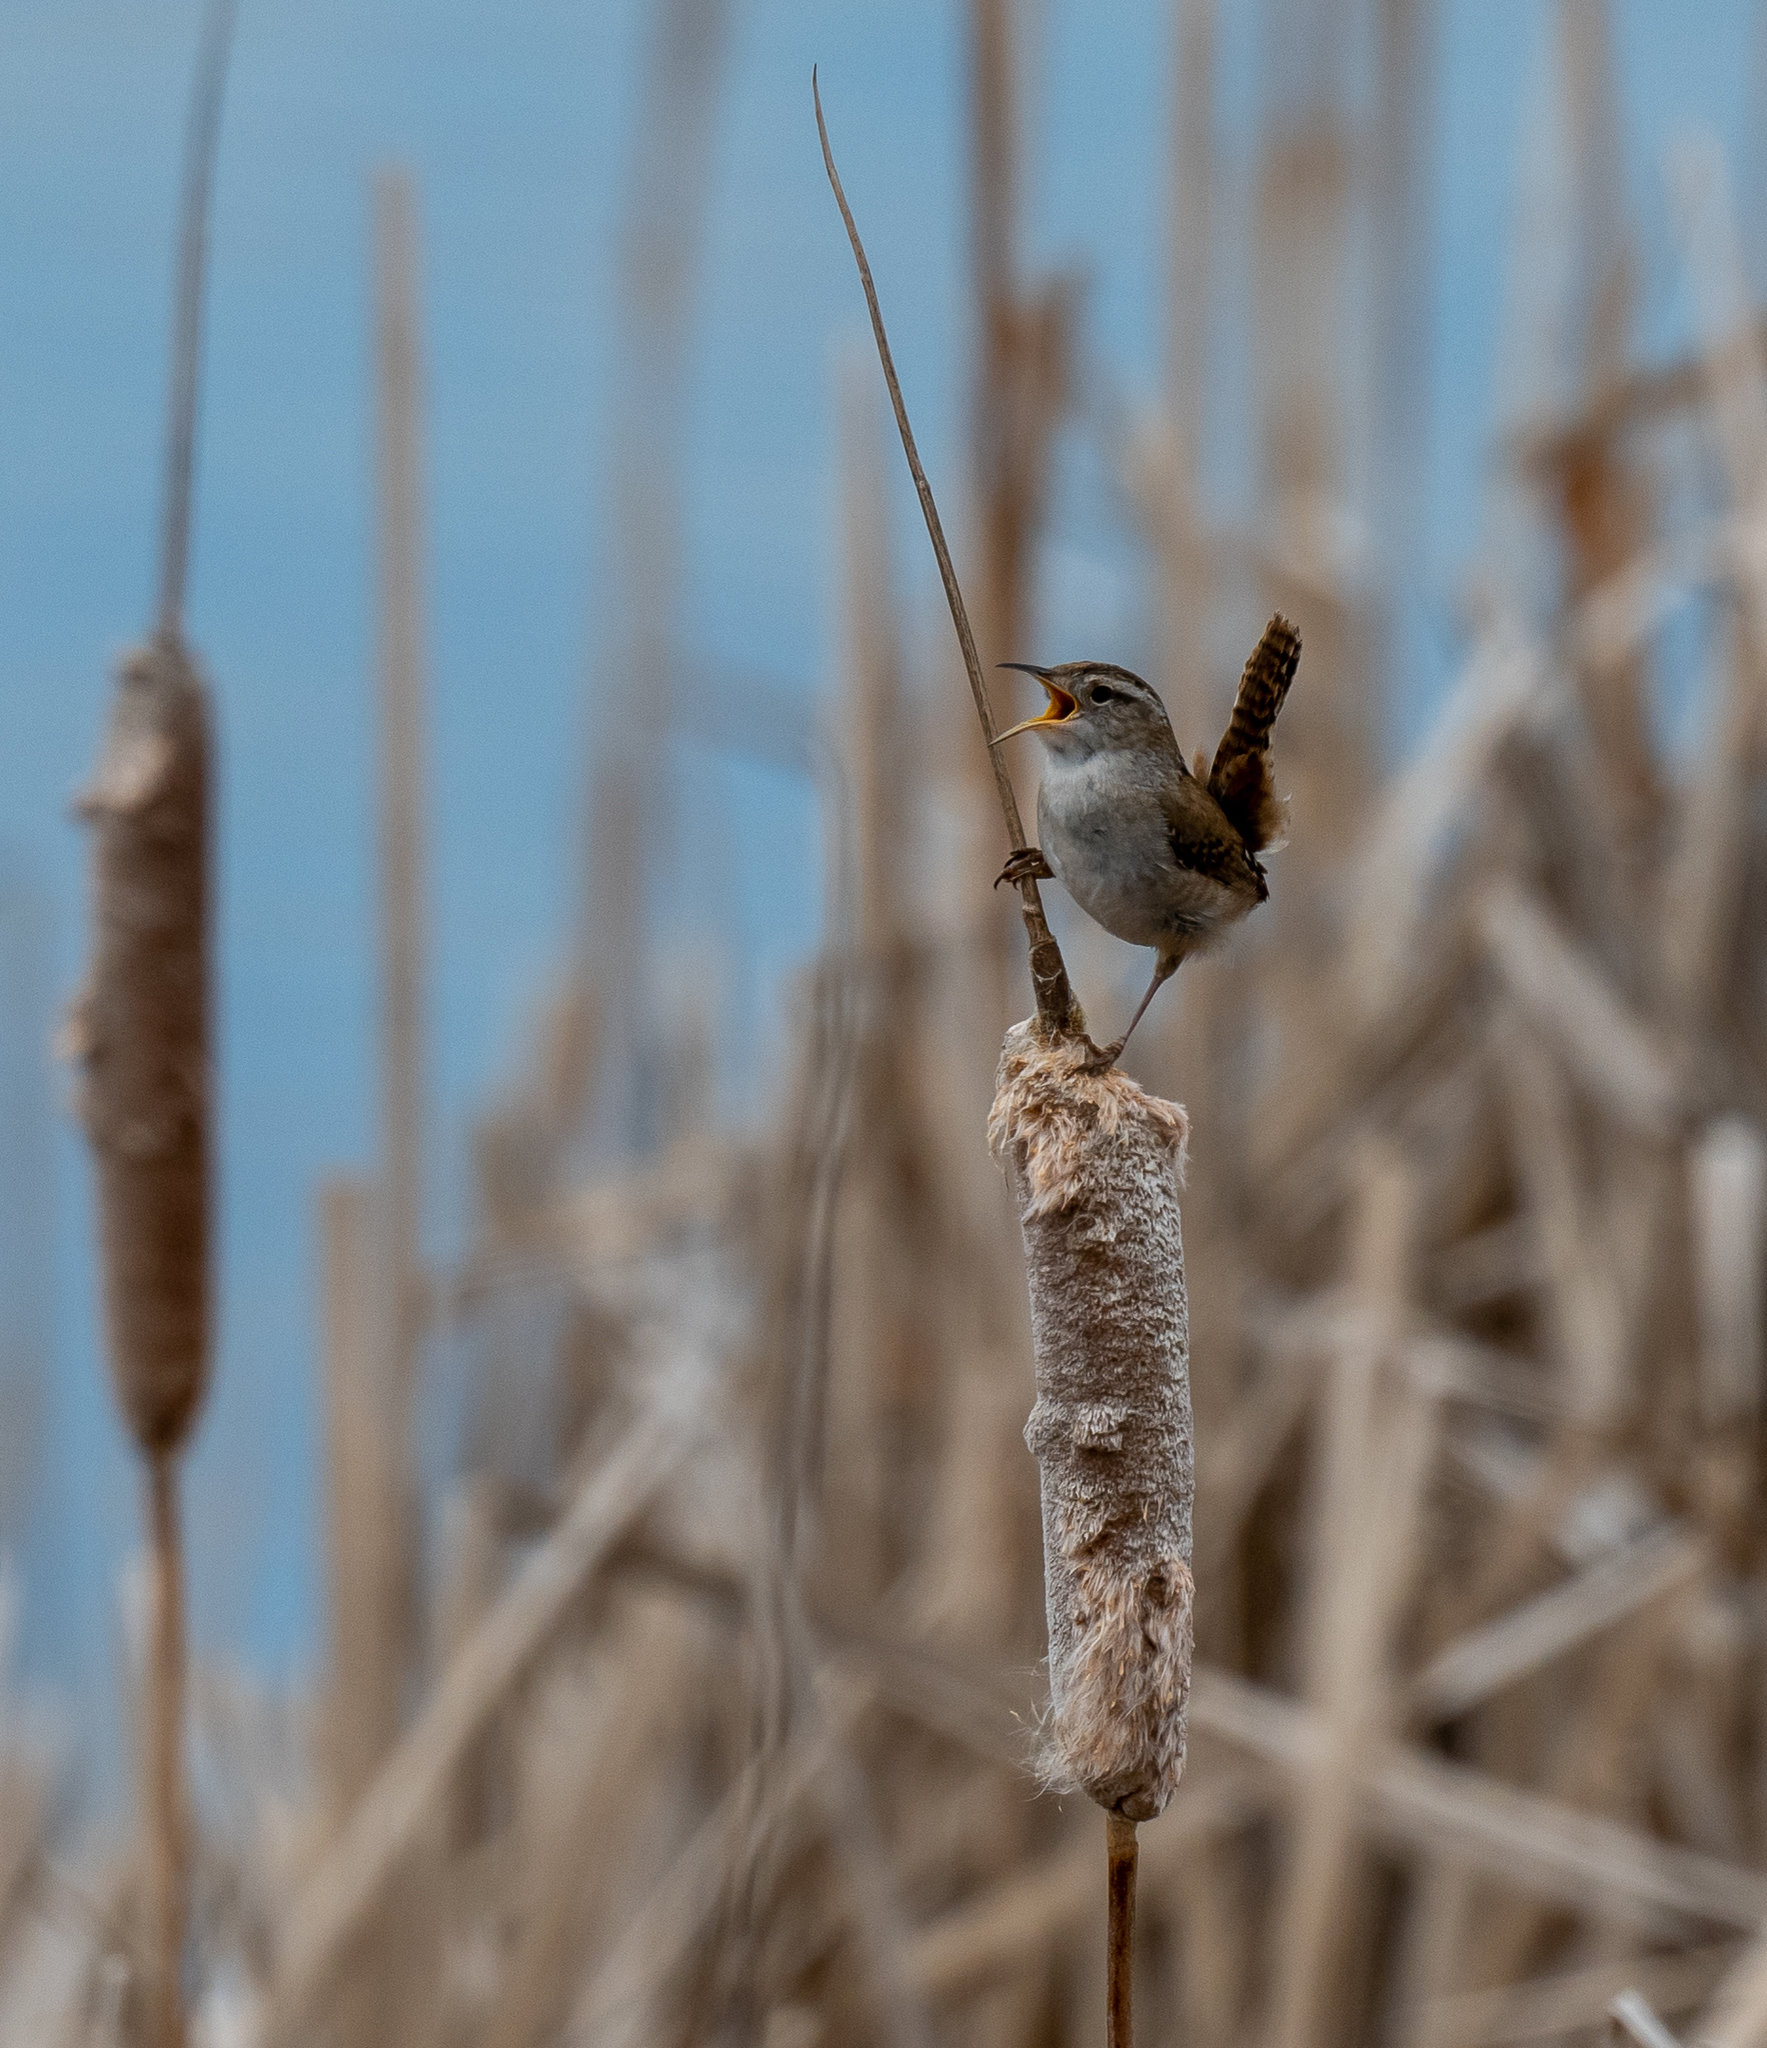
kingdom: Animalia
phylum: Chordata
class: Aves
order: Passeriformes
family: Troglodytidae
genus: Cistothorus
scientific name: Cistothorus palustris
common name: Marsh wren
